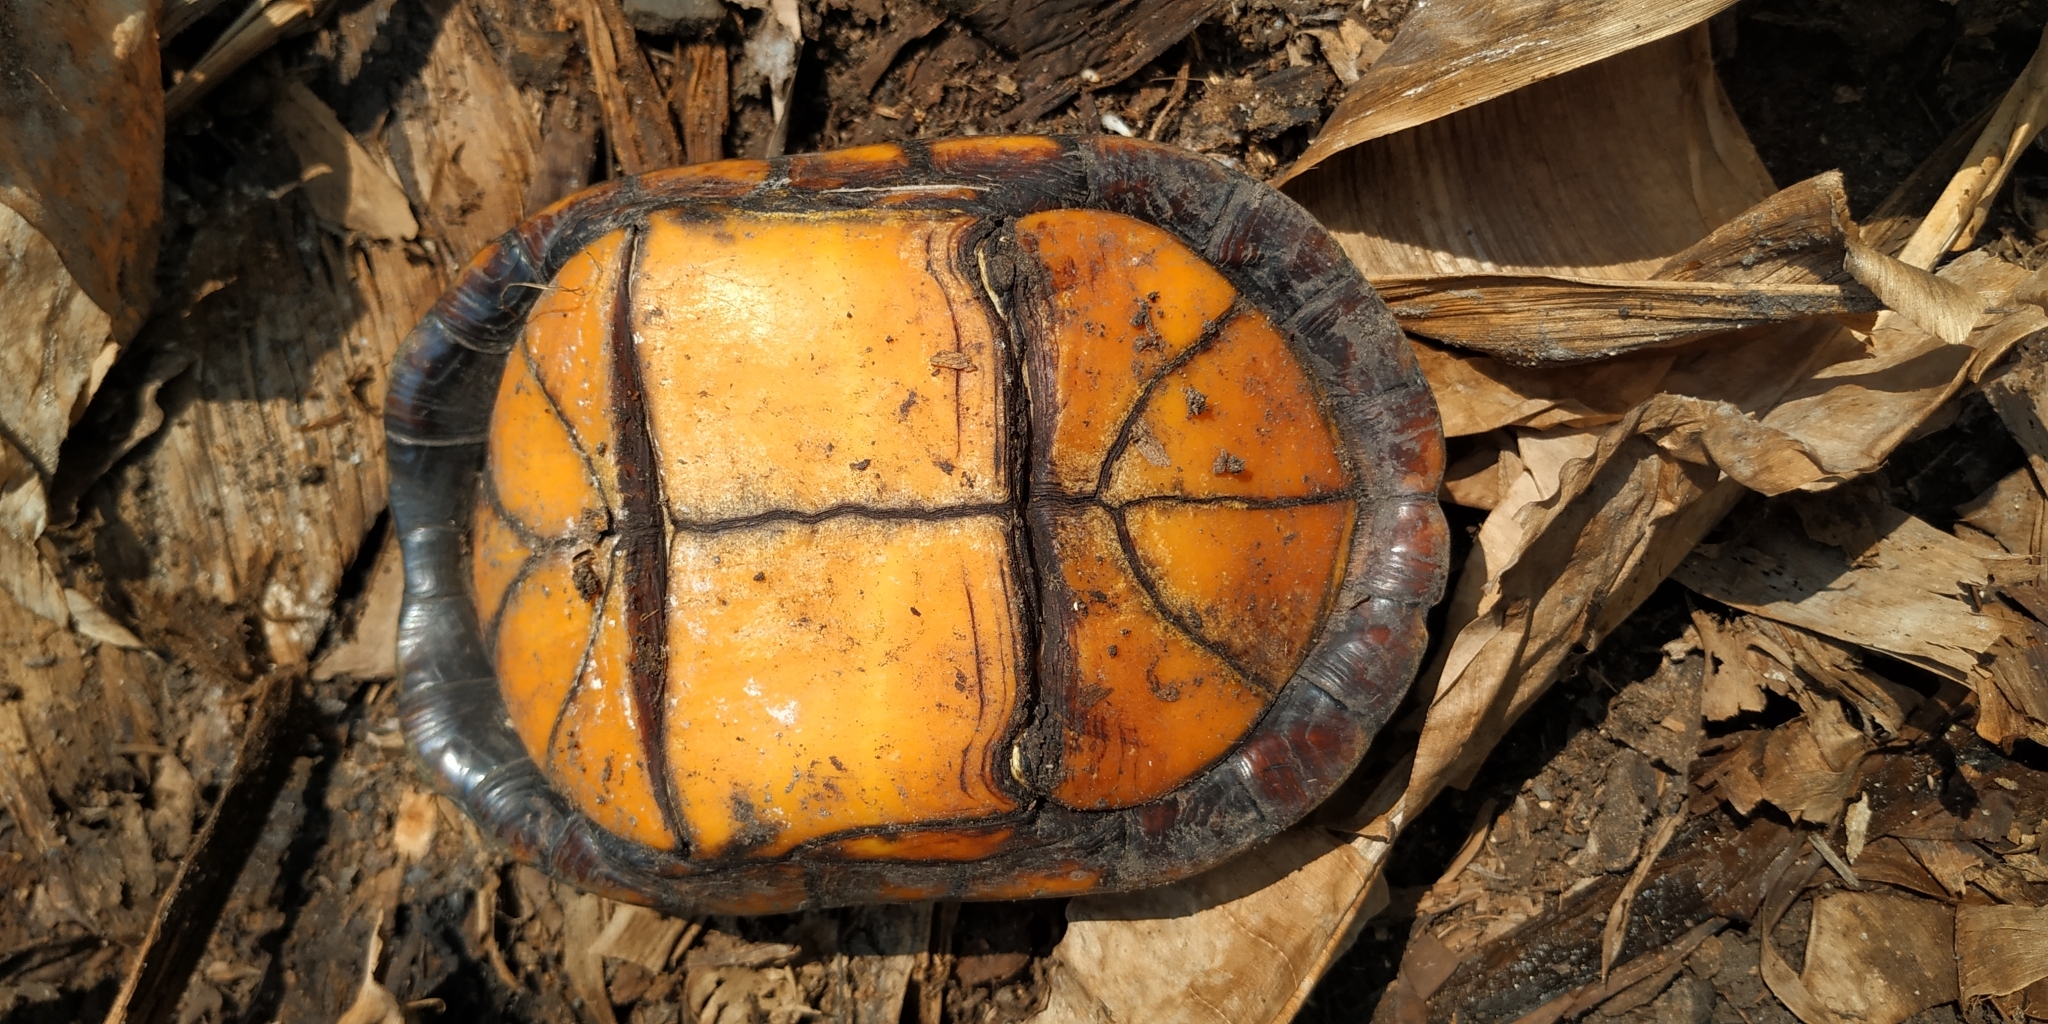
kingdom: Animalia
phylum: Chordata
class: Testudines
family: Kinosternidae
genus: Kinosternon
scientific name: Kinosternon scorpioides
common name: Scorpion mud turtle
